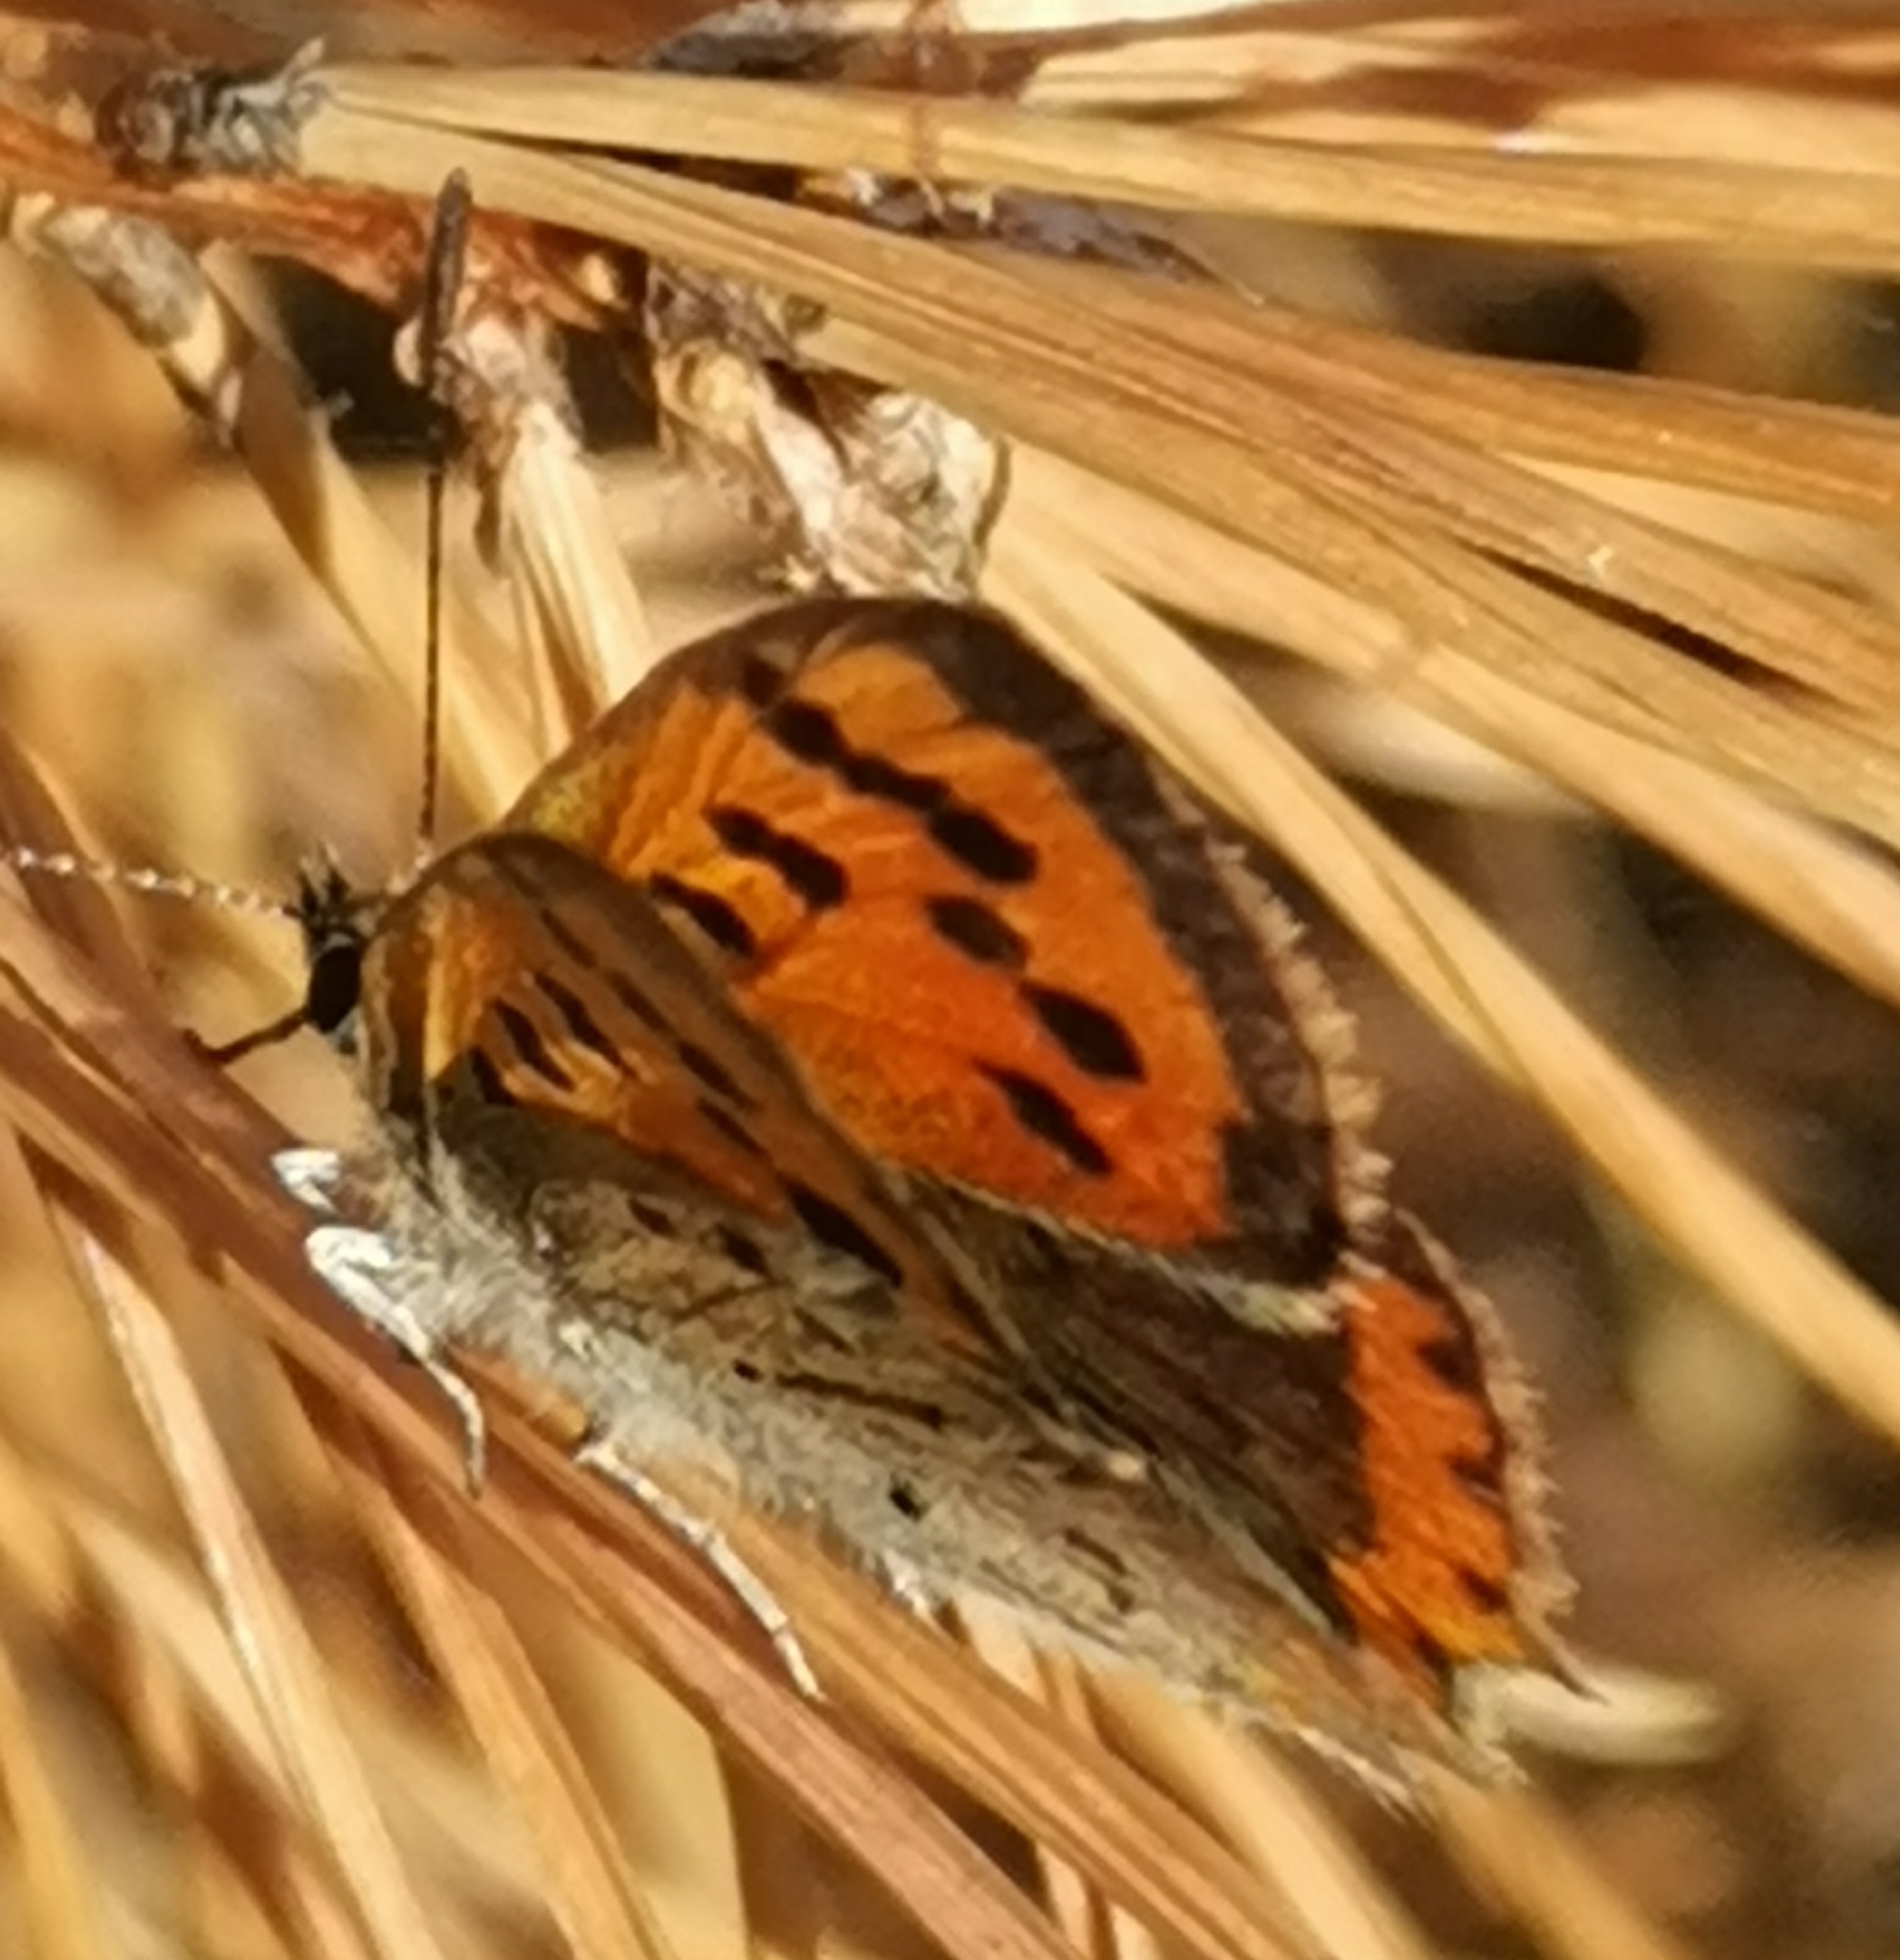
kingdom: Animalia
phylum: Arthropoda
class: Insecta
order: Lepidoptera
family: Lycaenidae
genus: Lycaena
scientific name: Lycaena phlaeas
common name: Small copper
